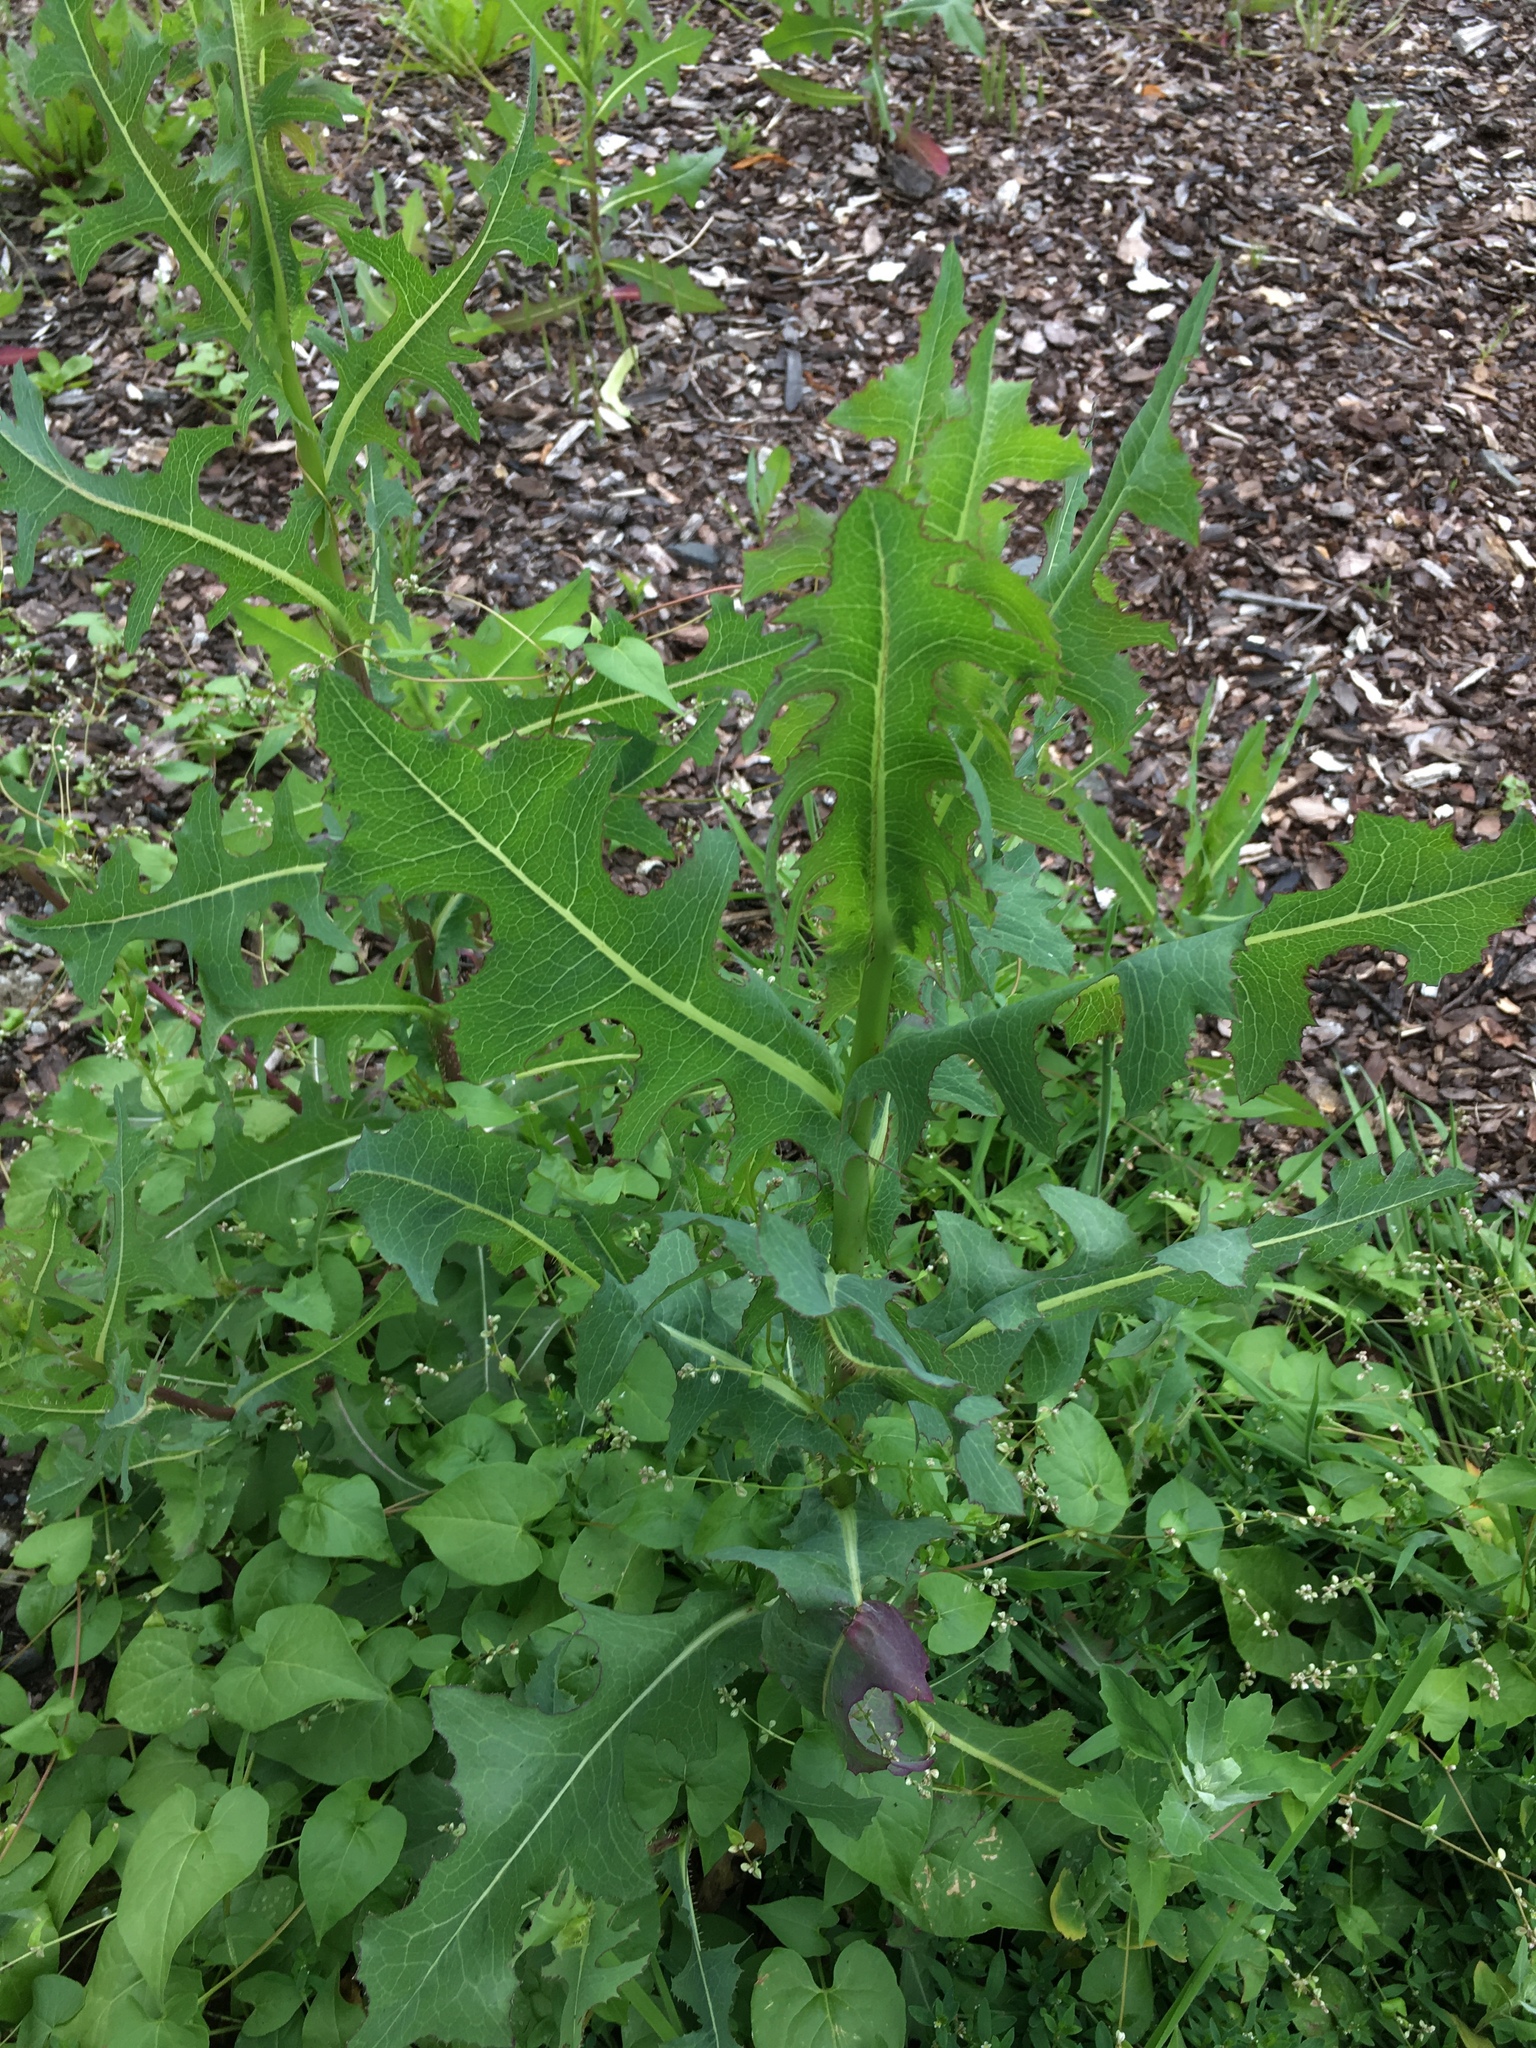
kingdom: Plantae
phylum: Tracheophyta
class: Magnoliopsida
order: Asterales
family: Asteraceae
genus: Lactuca
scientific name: Lactuca serriola
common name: Prickly lettuce
